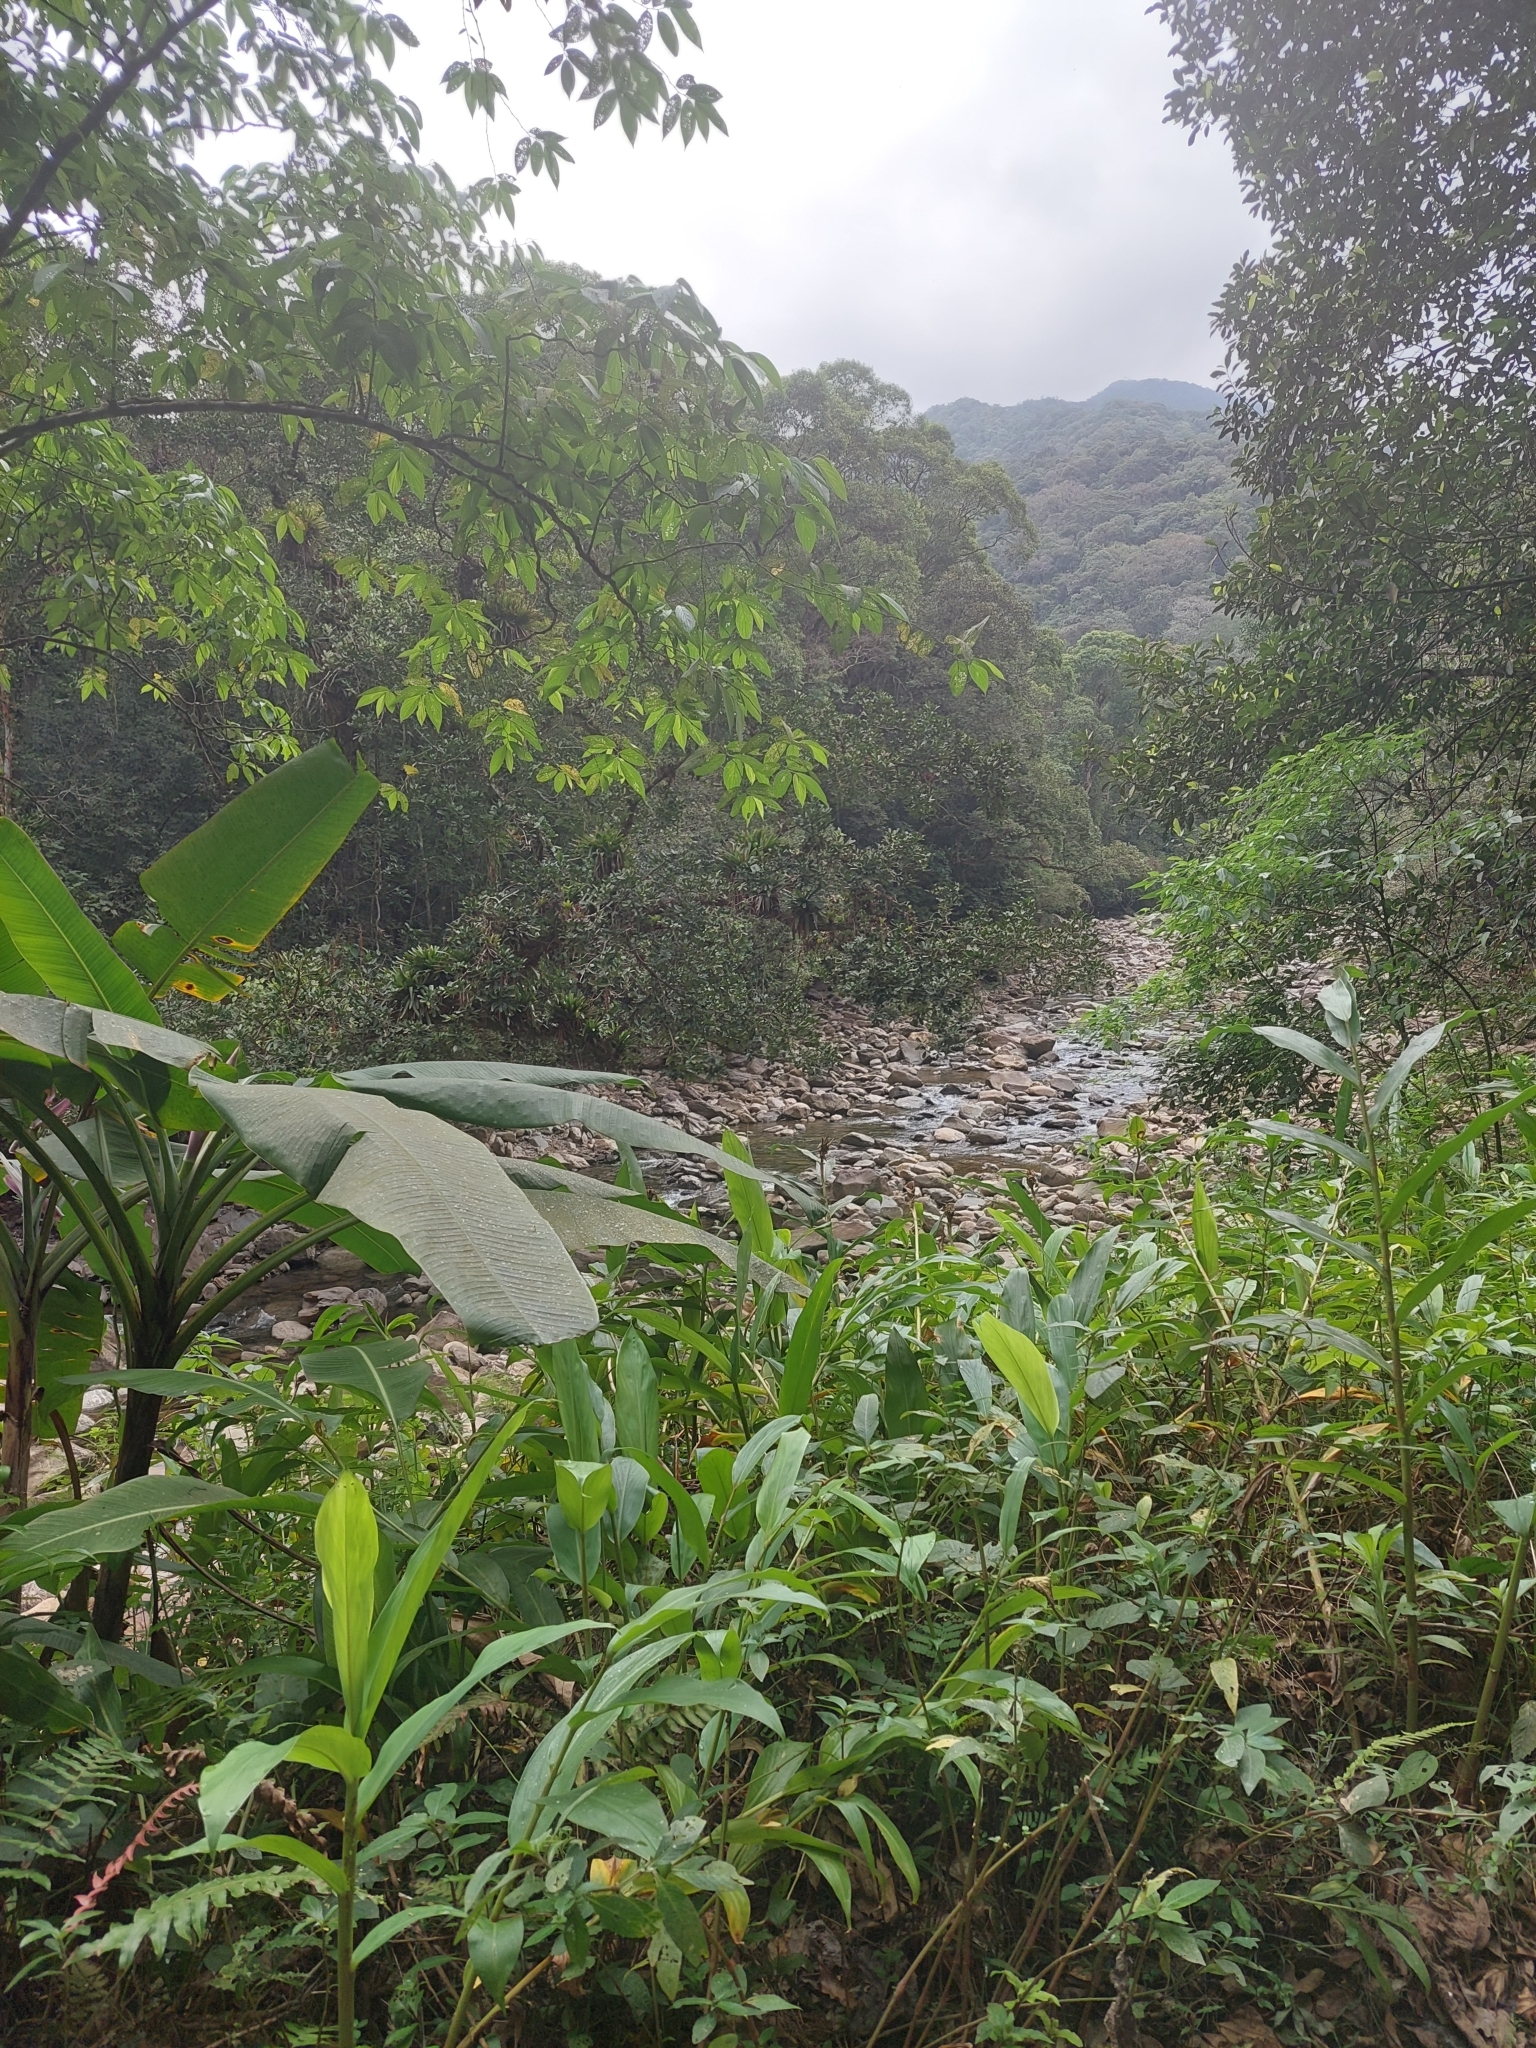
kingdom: Plantae
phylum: Tracheophyta
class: Liliopsida
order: Zingiberales
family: Zingiberaceae
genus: Hedychium
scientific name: Hedychium coronarium
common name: White garland-lily
